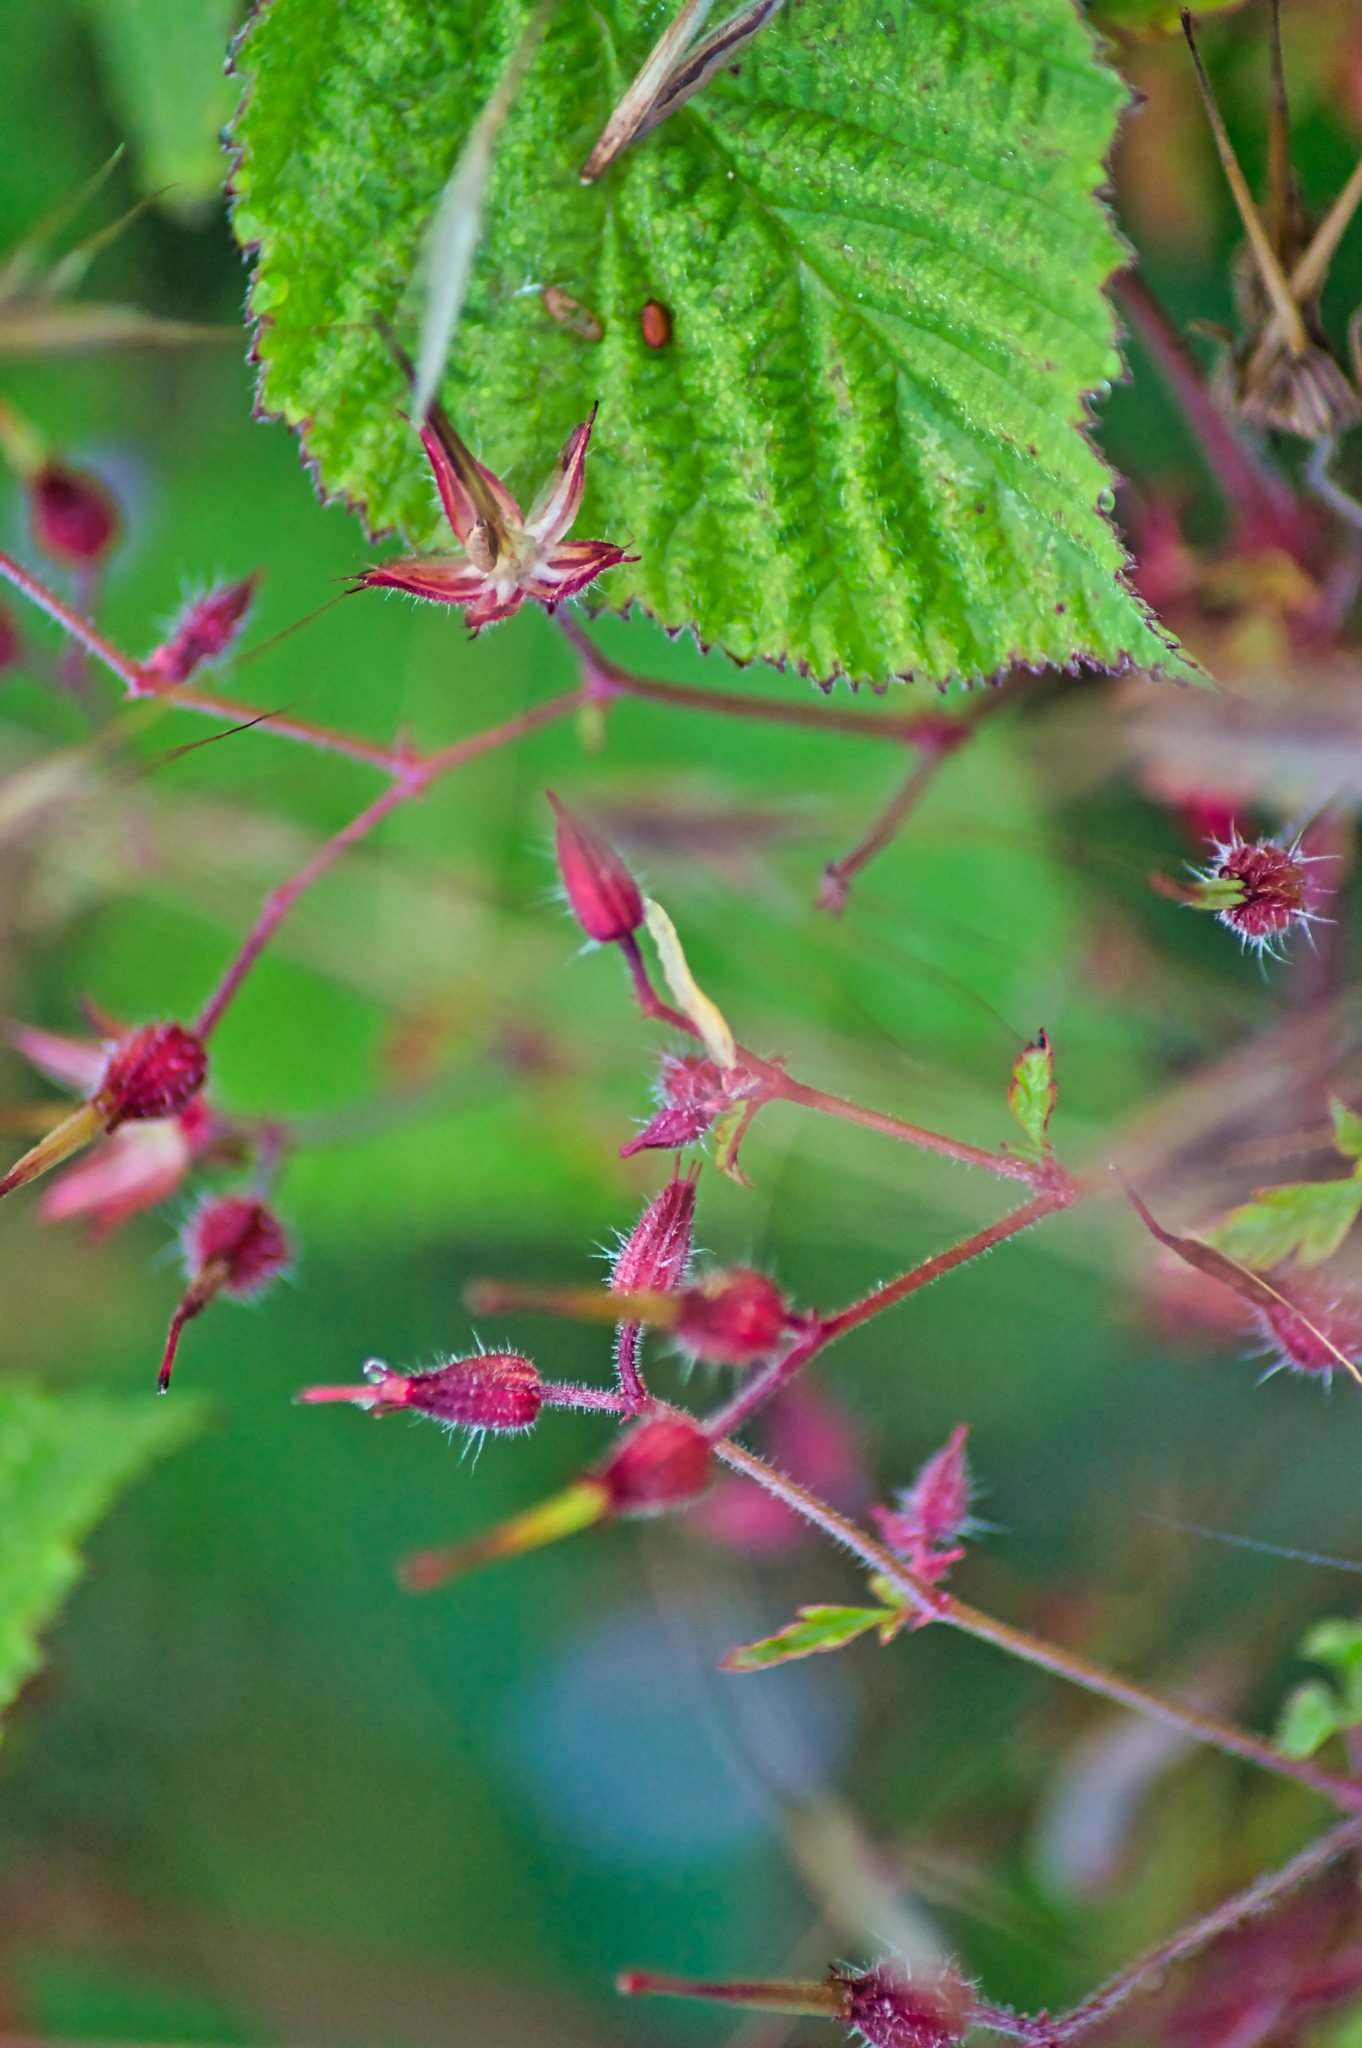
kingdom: Plantae
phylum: Tracheophyta
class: Magnoliopsida
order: Geraniales
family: Geraniaceae
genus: Geranium
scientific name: Geranium robertianum
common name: Herb-robert
